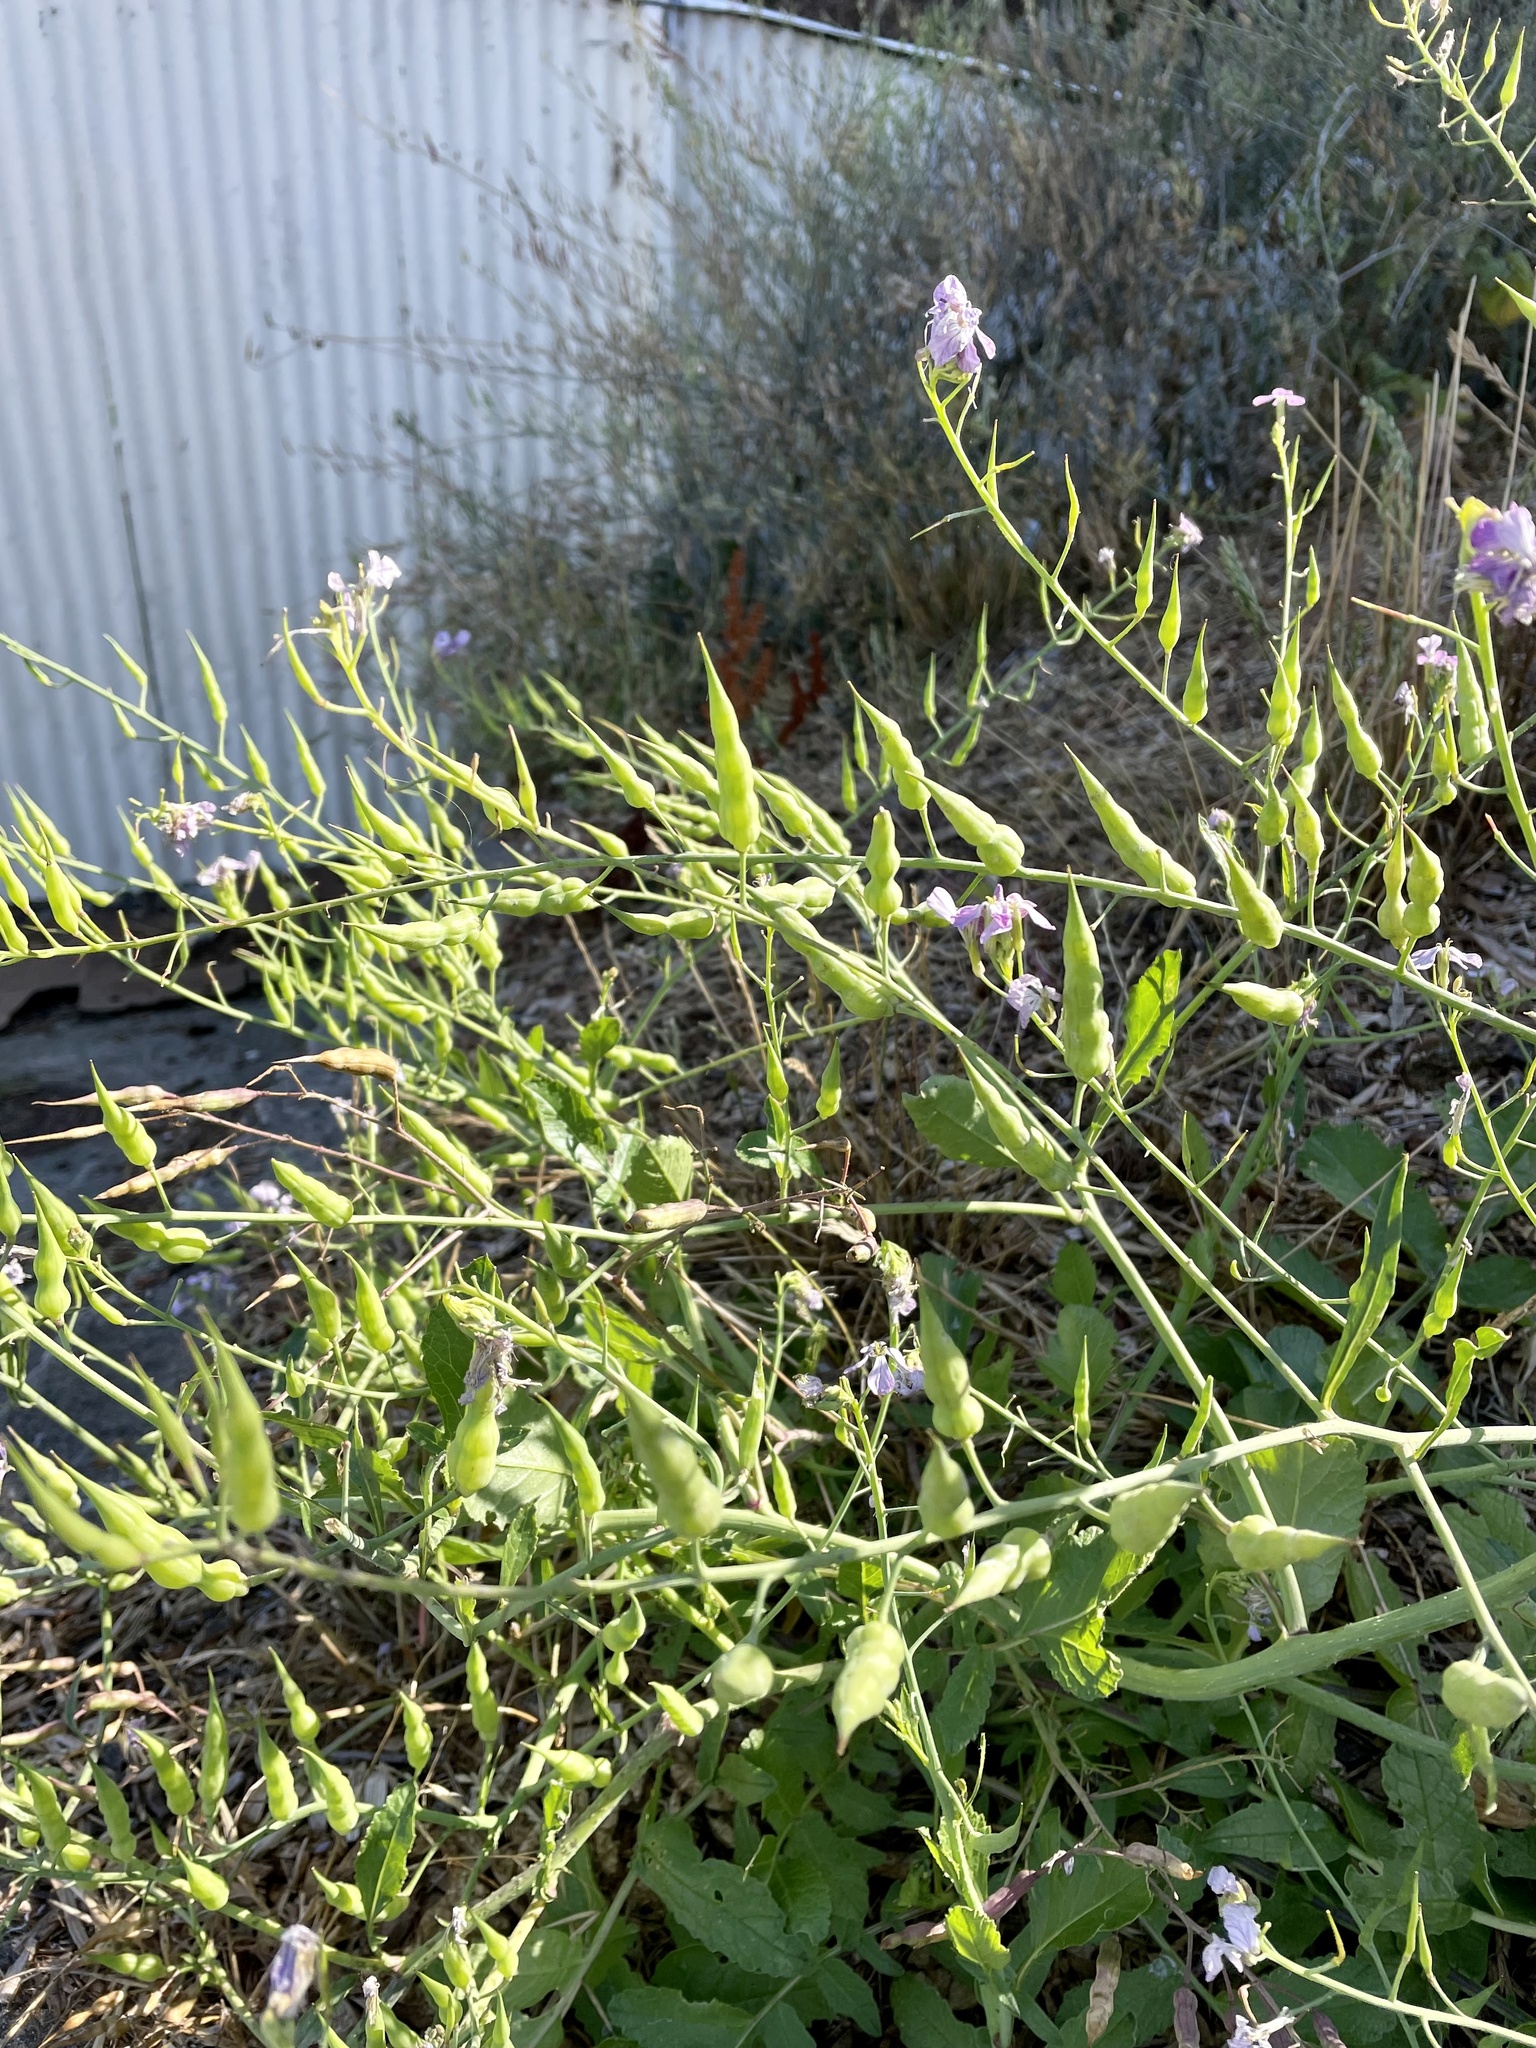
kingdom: Plantae
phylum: Tracheophyta
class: Magnoliopsida
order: Brassicales
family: Brassicaceae
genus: Raphanus
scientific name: Raphanus sativus
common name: Cultivated radish
